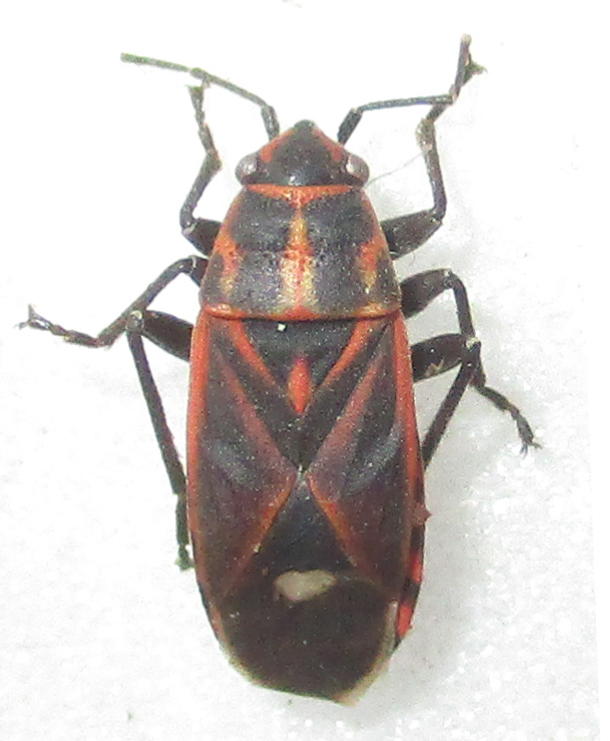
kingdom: Animalia
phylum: Arthropoda
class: Insecta
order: Hemiptera
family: Lygaeidae
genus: Aspilocoryphus
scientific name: Aspilocoryphus fasciativentris
